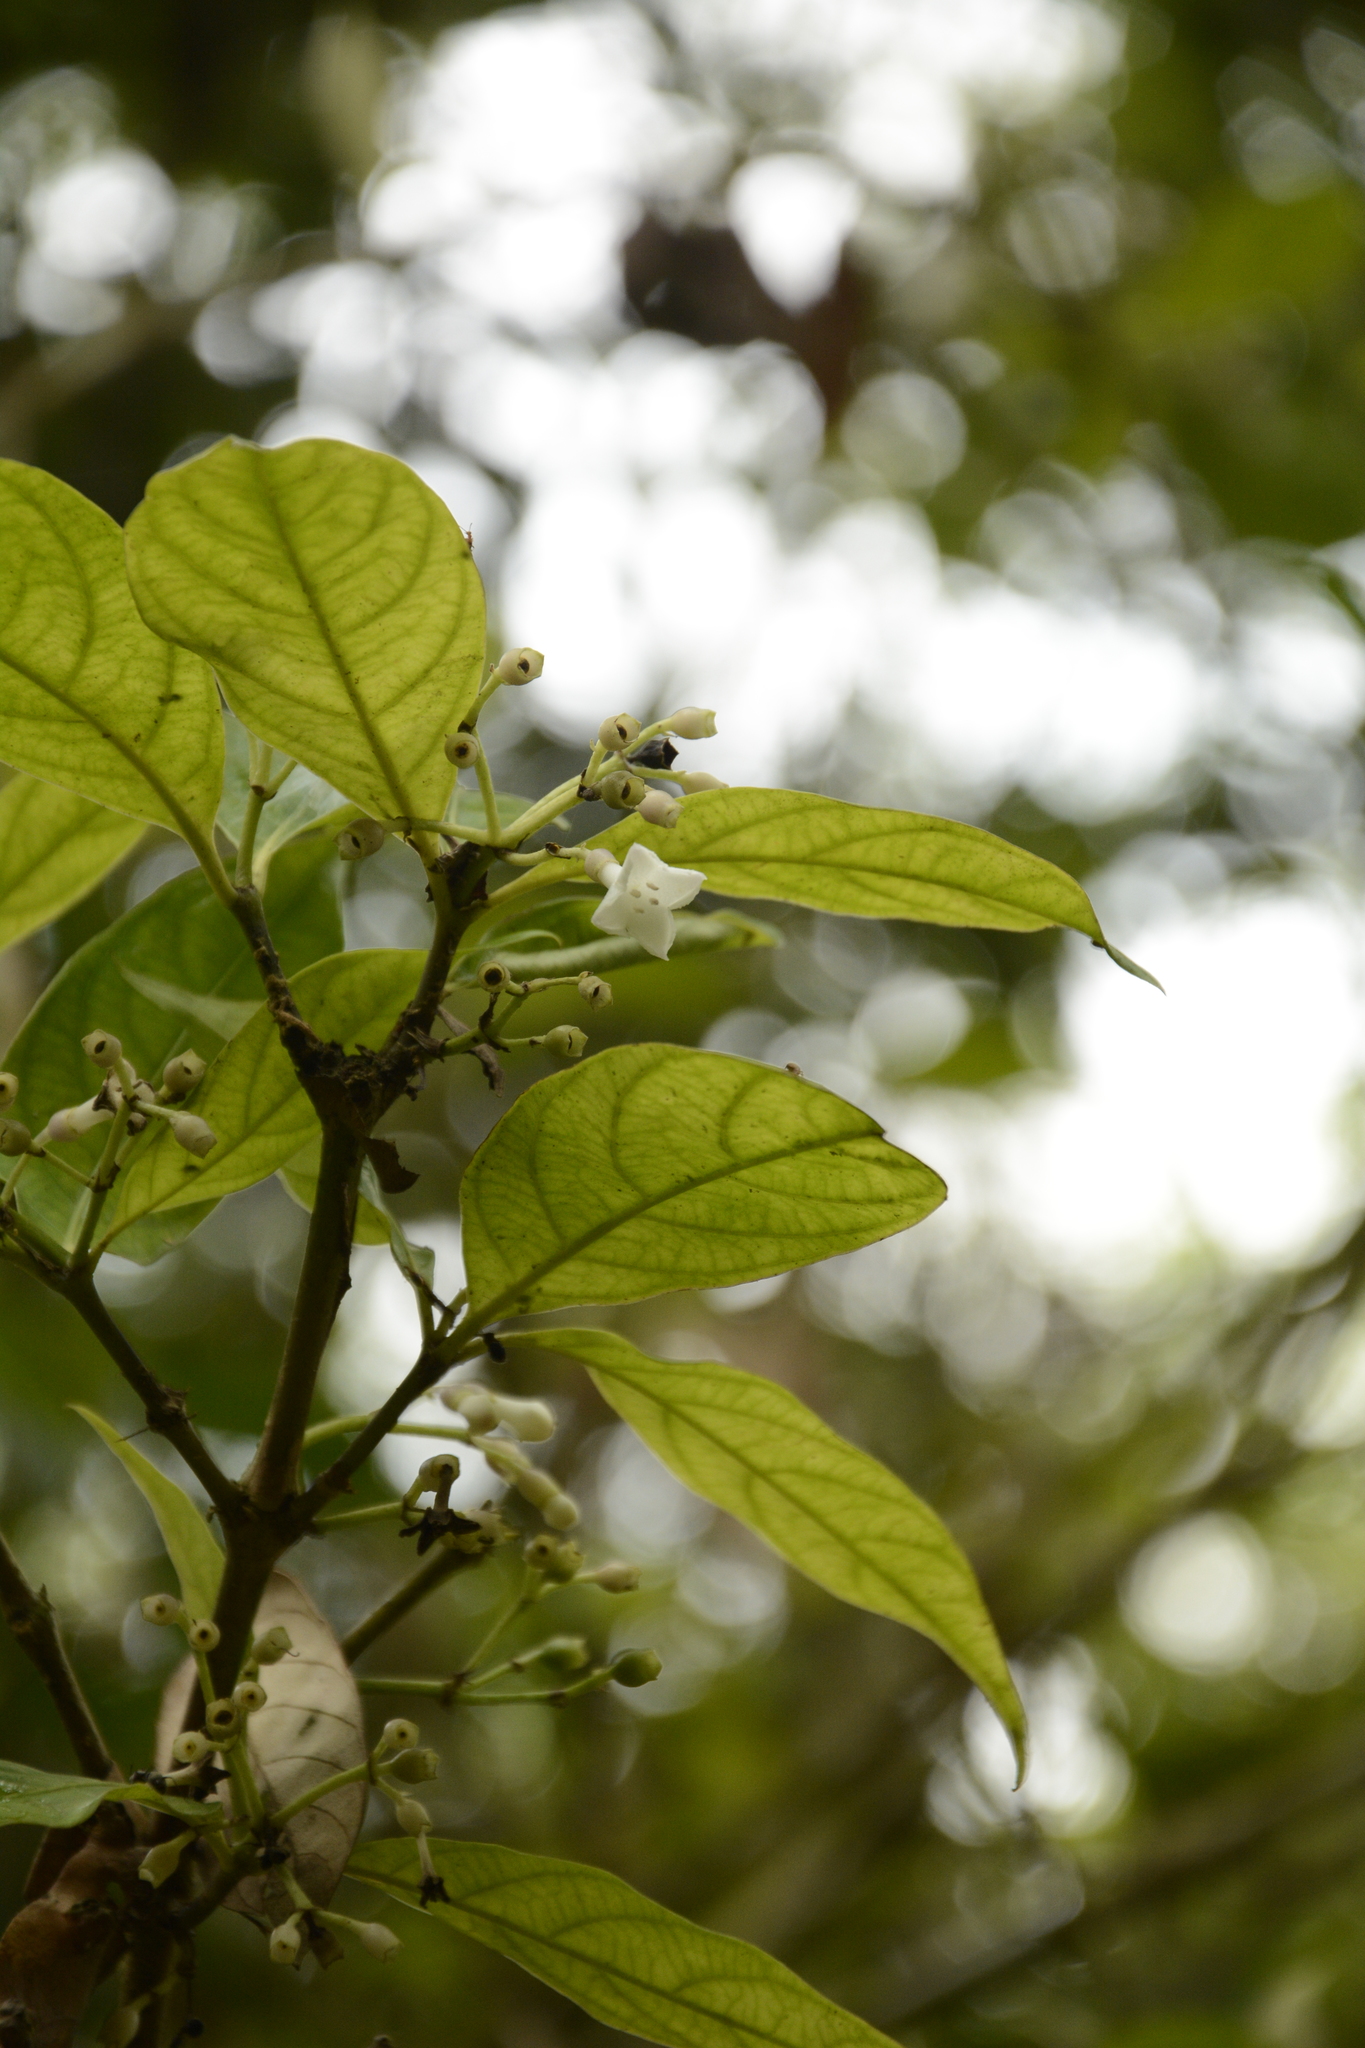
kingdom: Plantae
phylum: Tracheophyta
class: Magnoliopsida
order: Gentianales
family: Rubiaceae
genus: Saprosma
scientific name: Saprosma ternata
